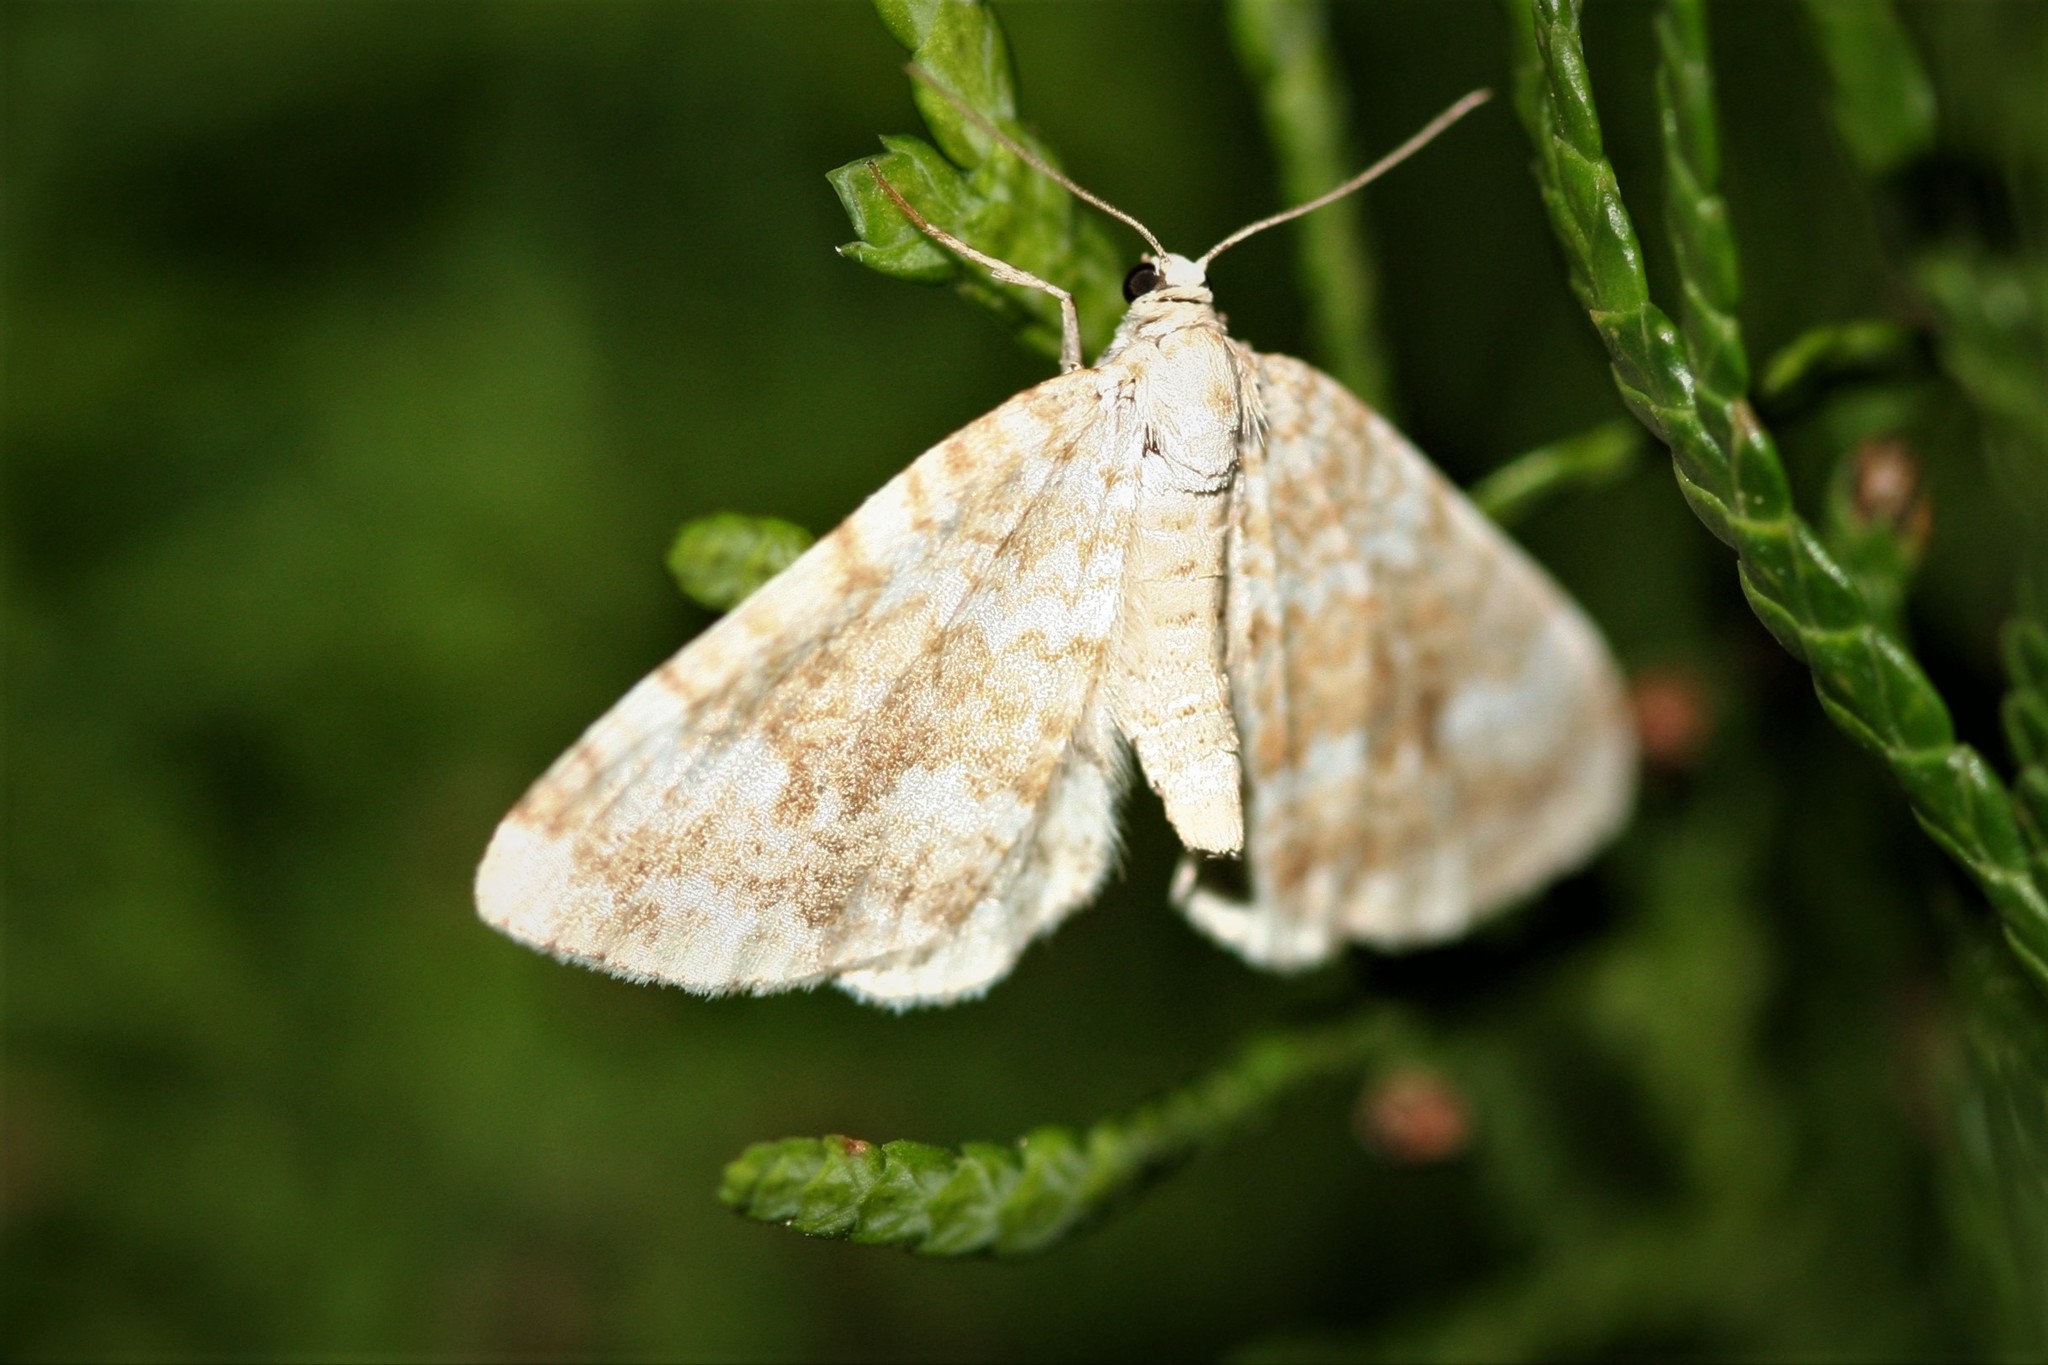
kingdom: Animalia
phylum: Arthropoda
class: Insecta
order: Lepidoptera
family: Geometridae
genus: Perizoma
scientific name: Perizoma flavofasciata
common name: Sandy carpet
